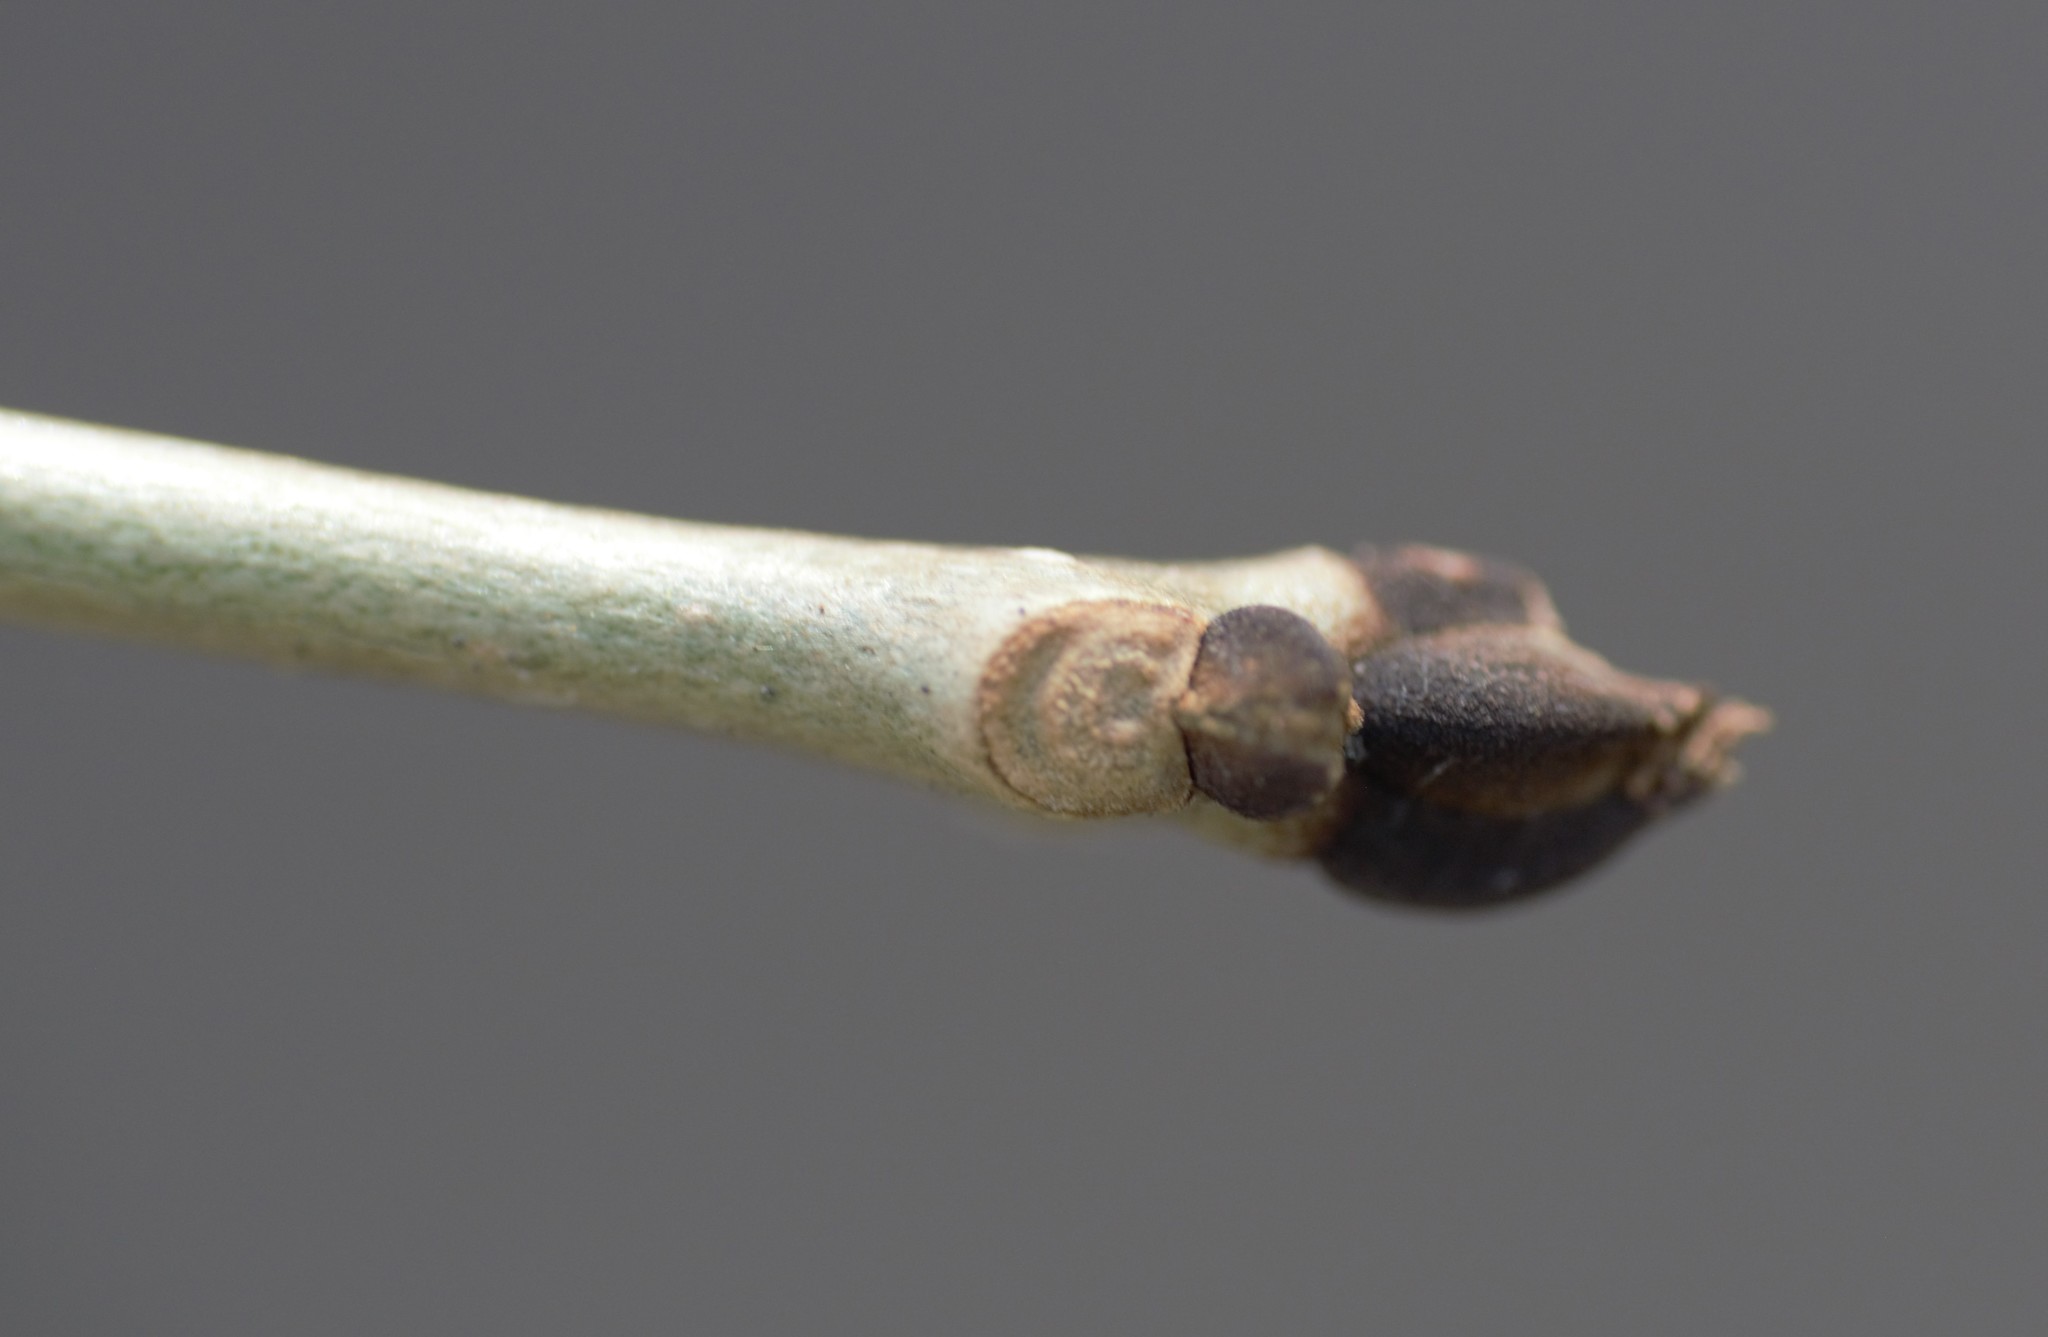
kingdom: Plantae
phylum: Tracheophyta
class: Magnoliopsida
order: Lamiales
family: Oleaceae
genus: Fraxinus
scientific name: Fraxinus nigra
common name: Black ash
